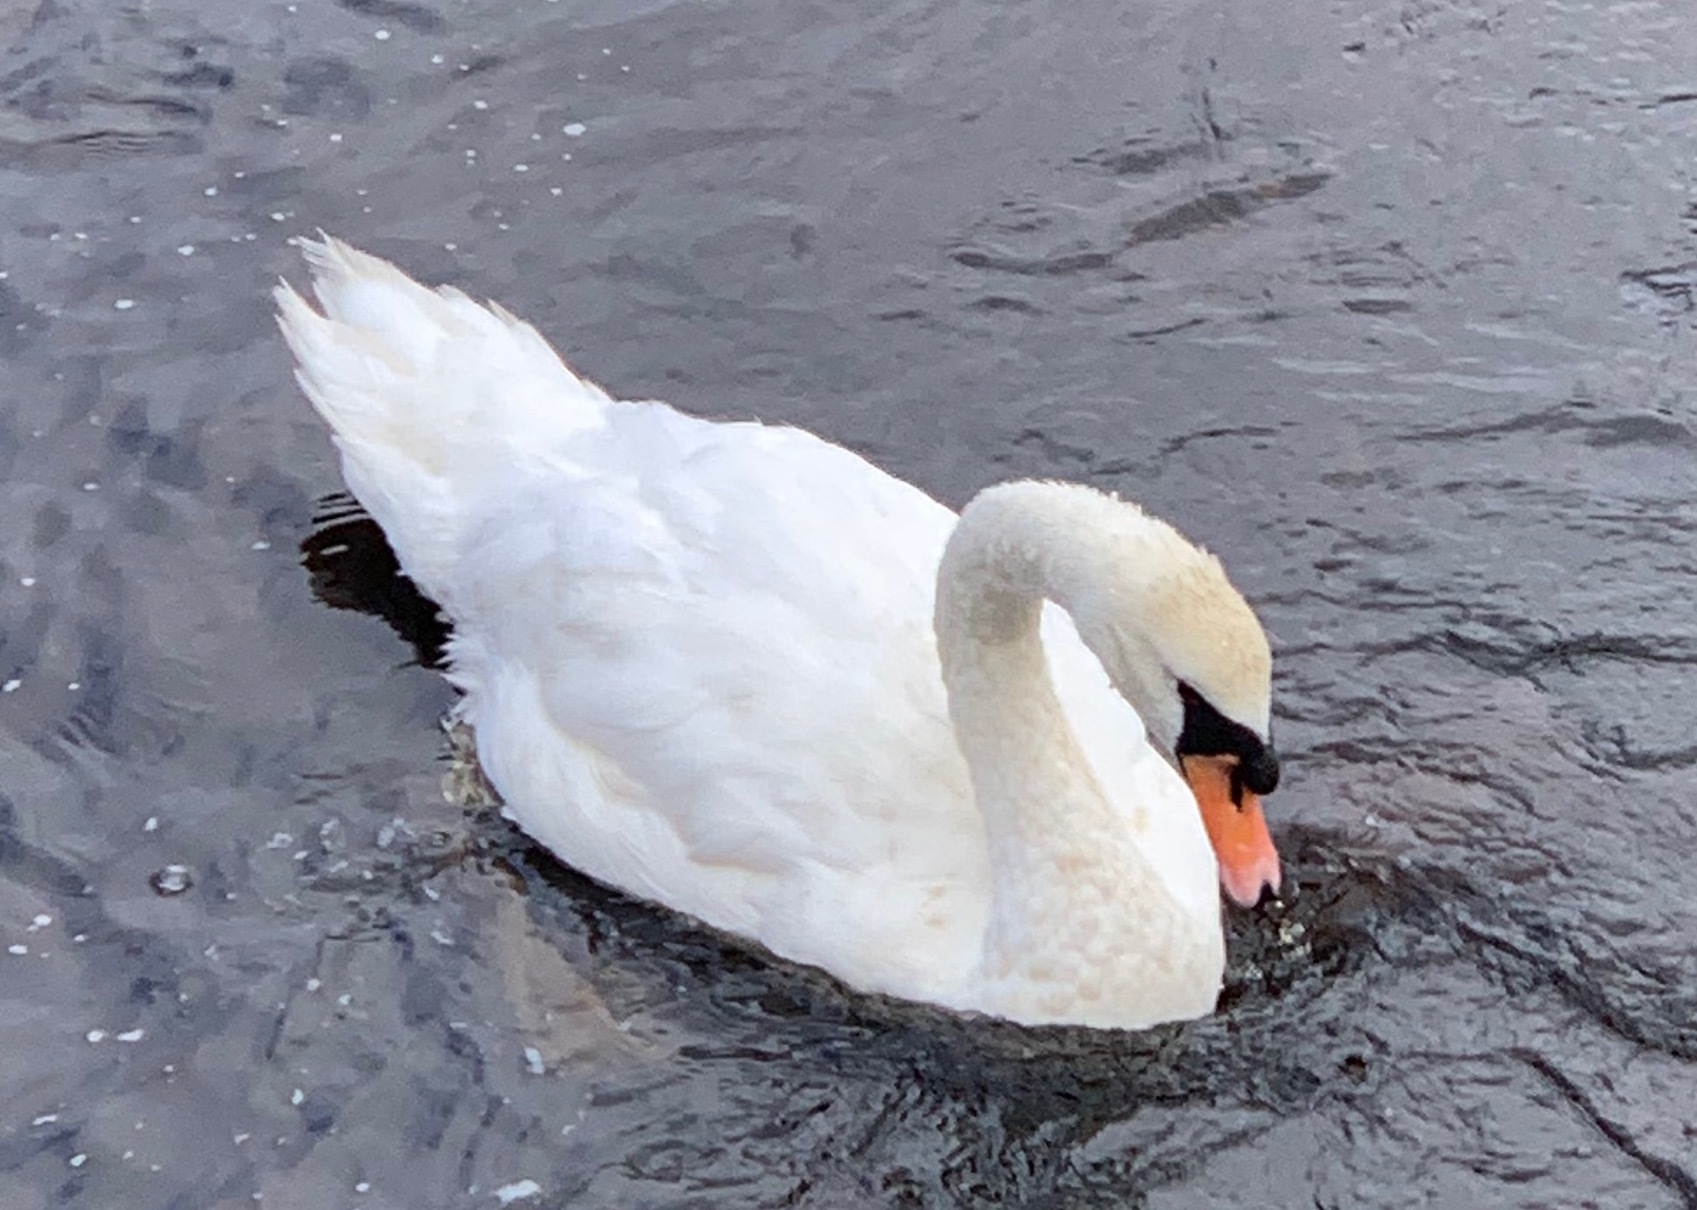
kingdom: Animalia
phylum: Chordata
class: Aves
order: Anseriformes
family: Anatidae
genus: Cygnus
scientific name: Cygnus olor
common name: Mute swan
